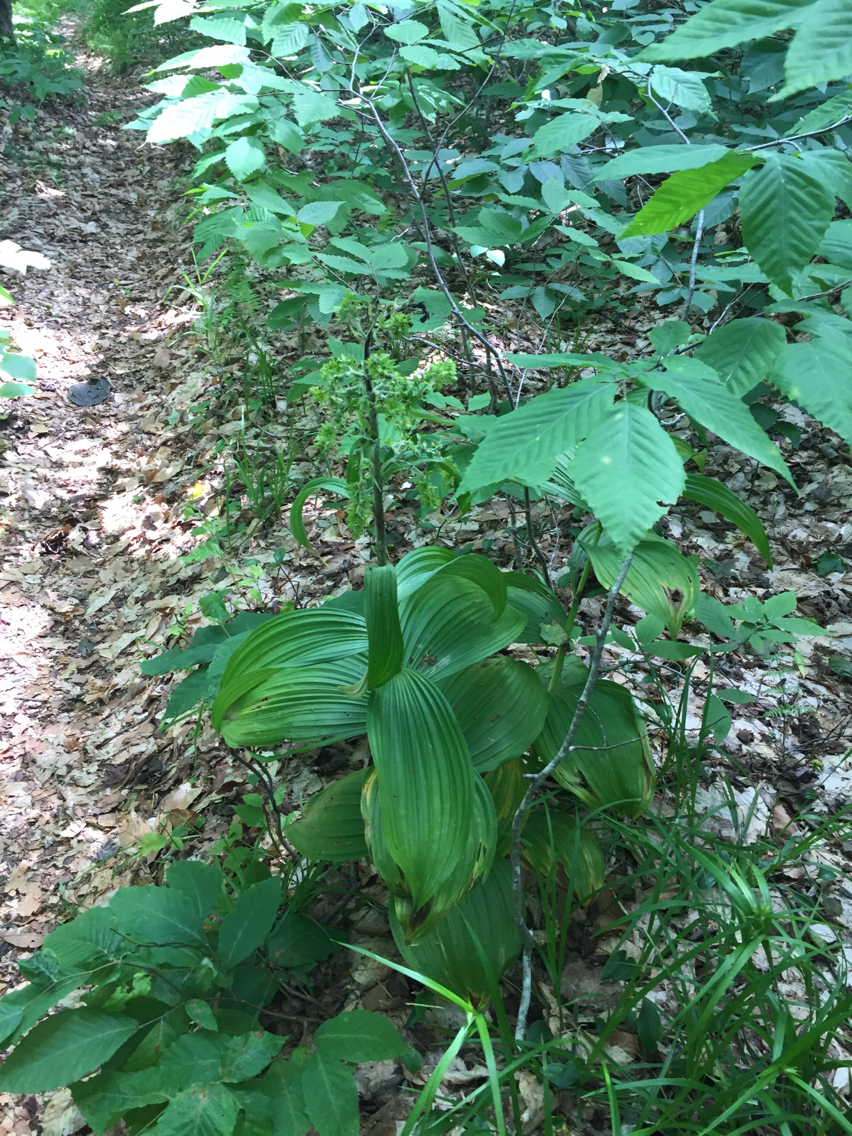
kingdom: Plantae
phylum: Tracheophyta
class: Liliopsida
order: Liliales
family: Melanthiaceae
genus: Veratrum
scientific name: Veratrum viride
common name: American false hellebore
